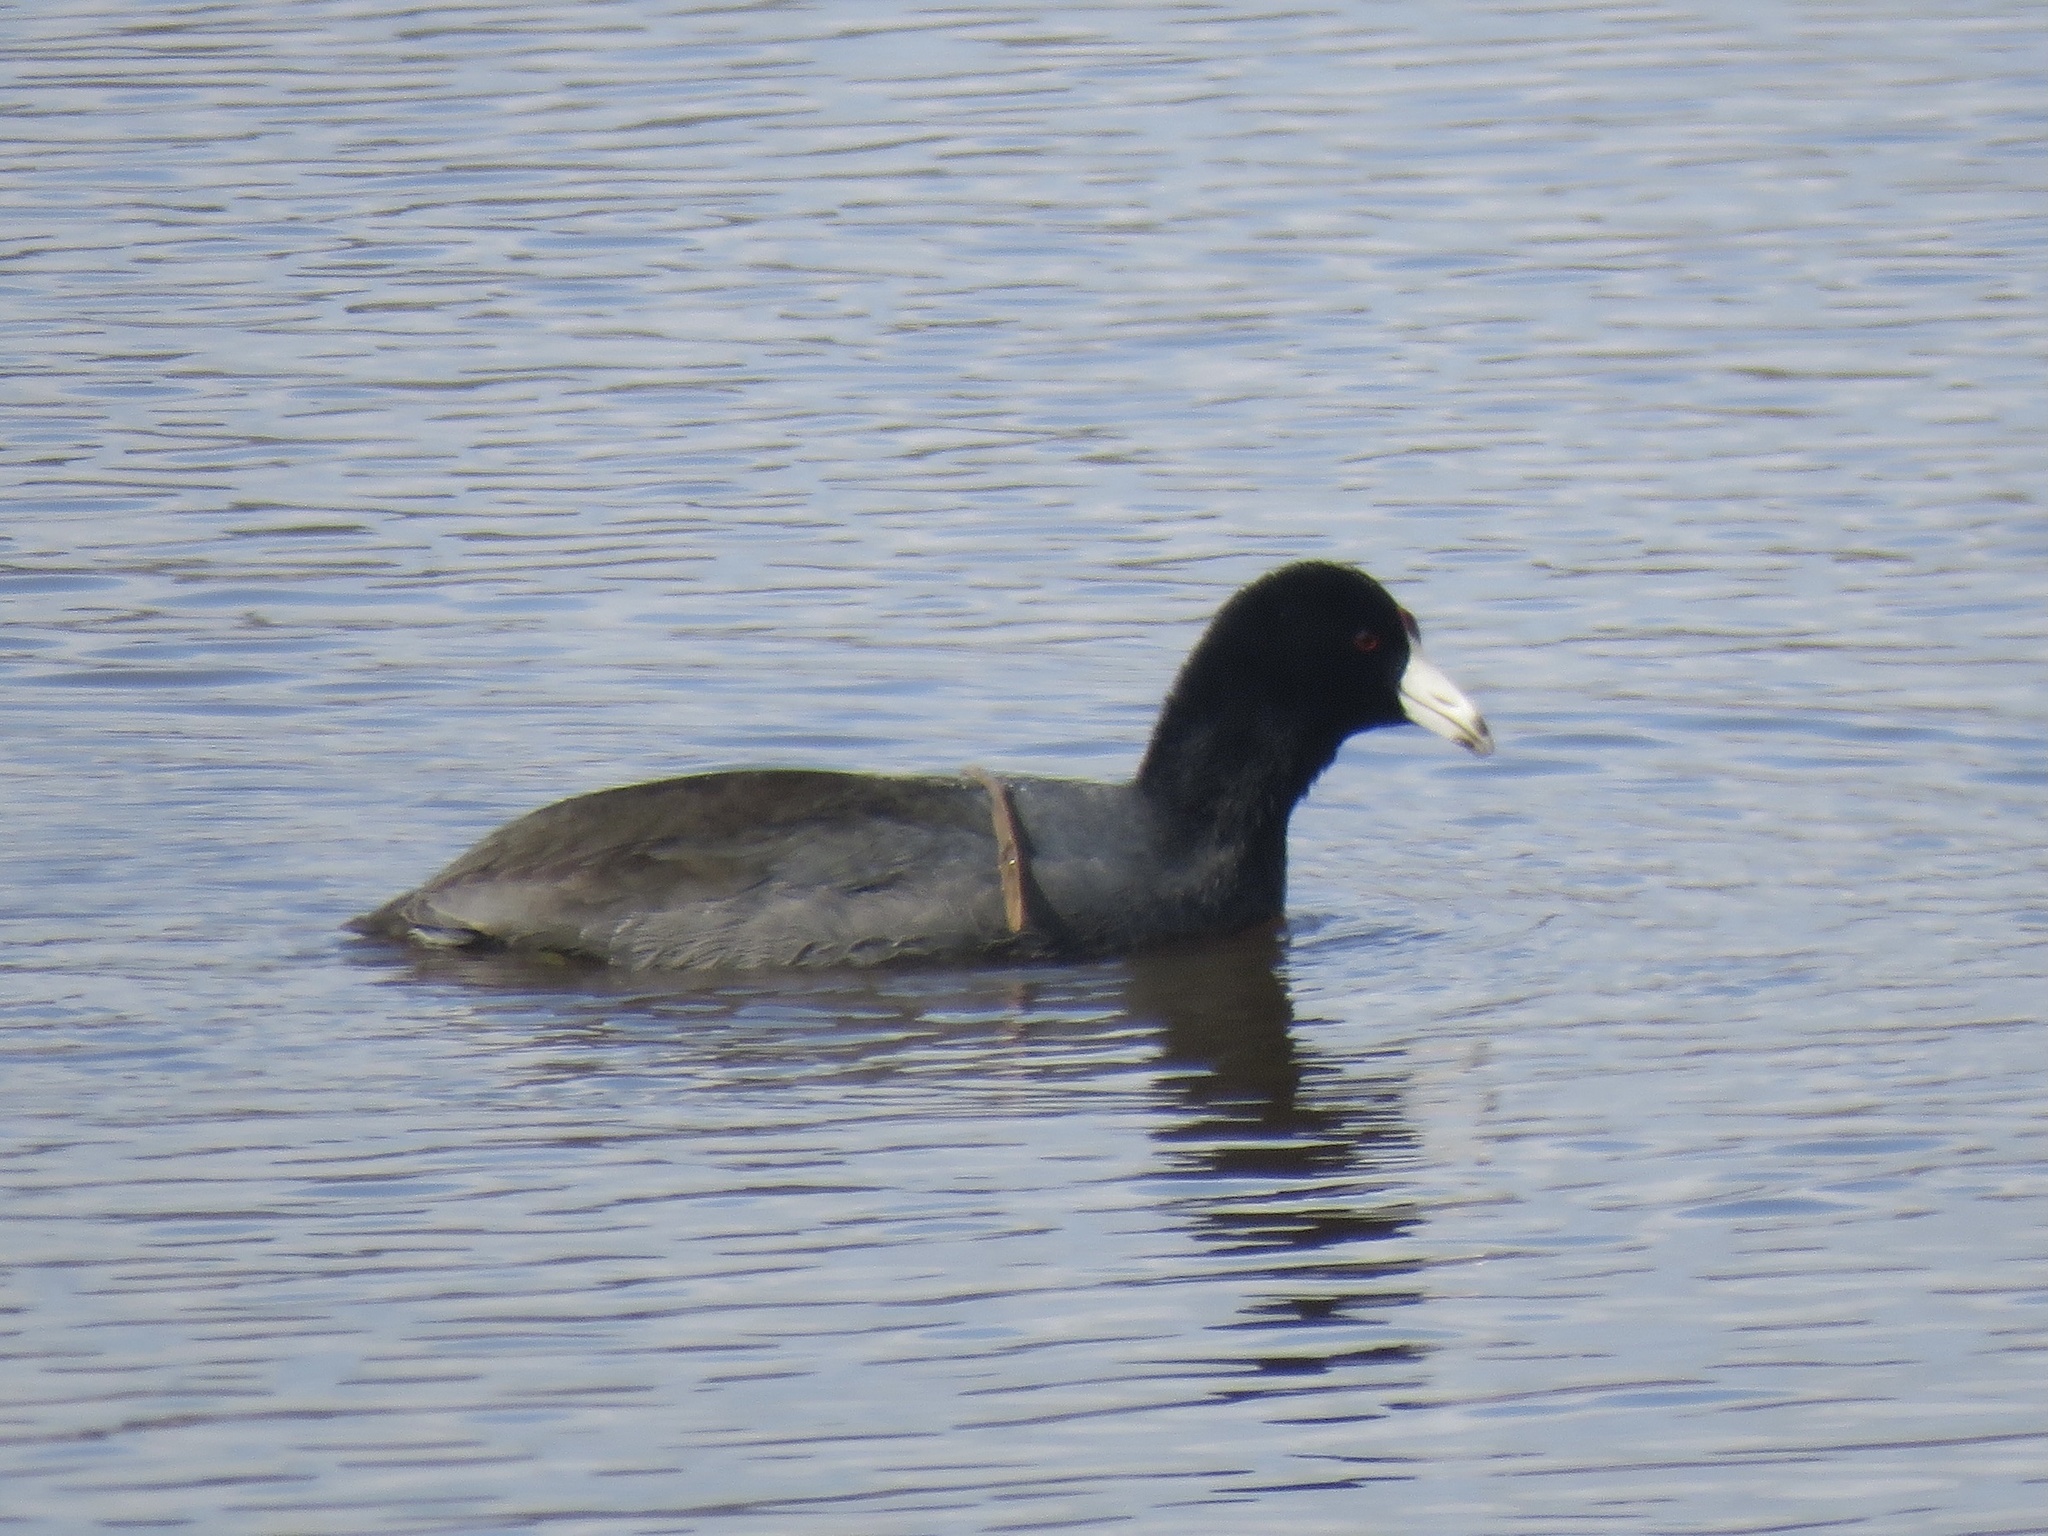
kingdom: Animalia
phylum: Chordata
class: Aves
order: Gruiformes
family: Rallidae
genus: Fulica
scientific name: Fulica americana
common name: American coot
